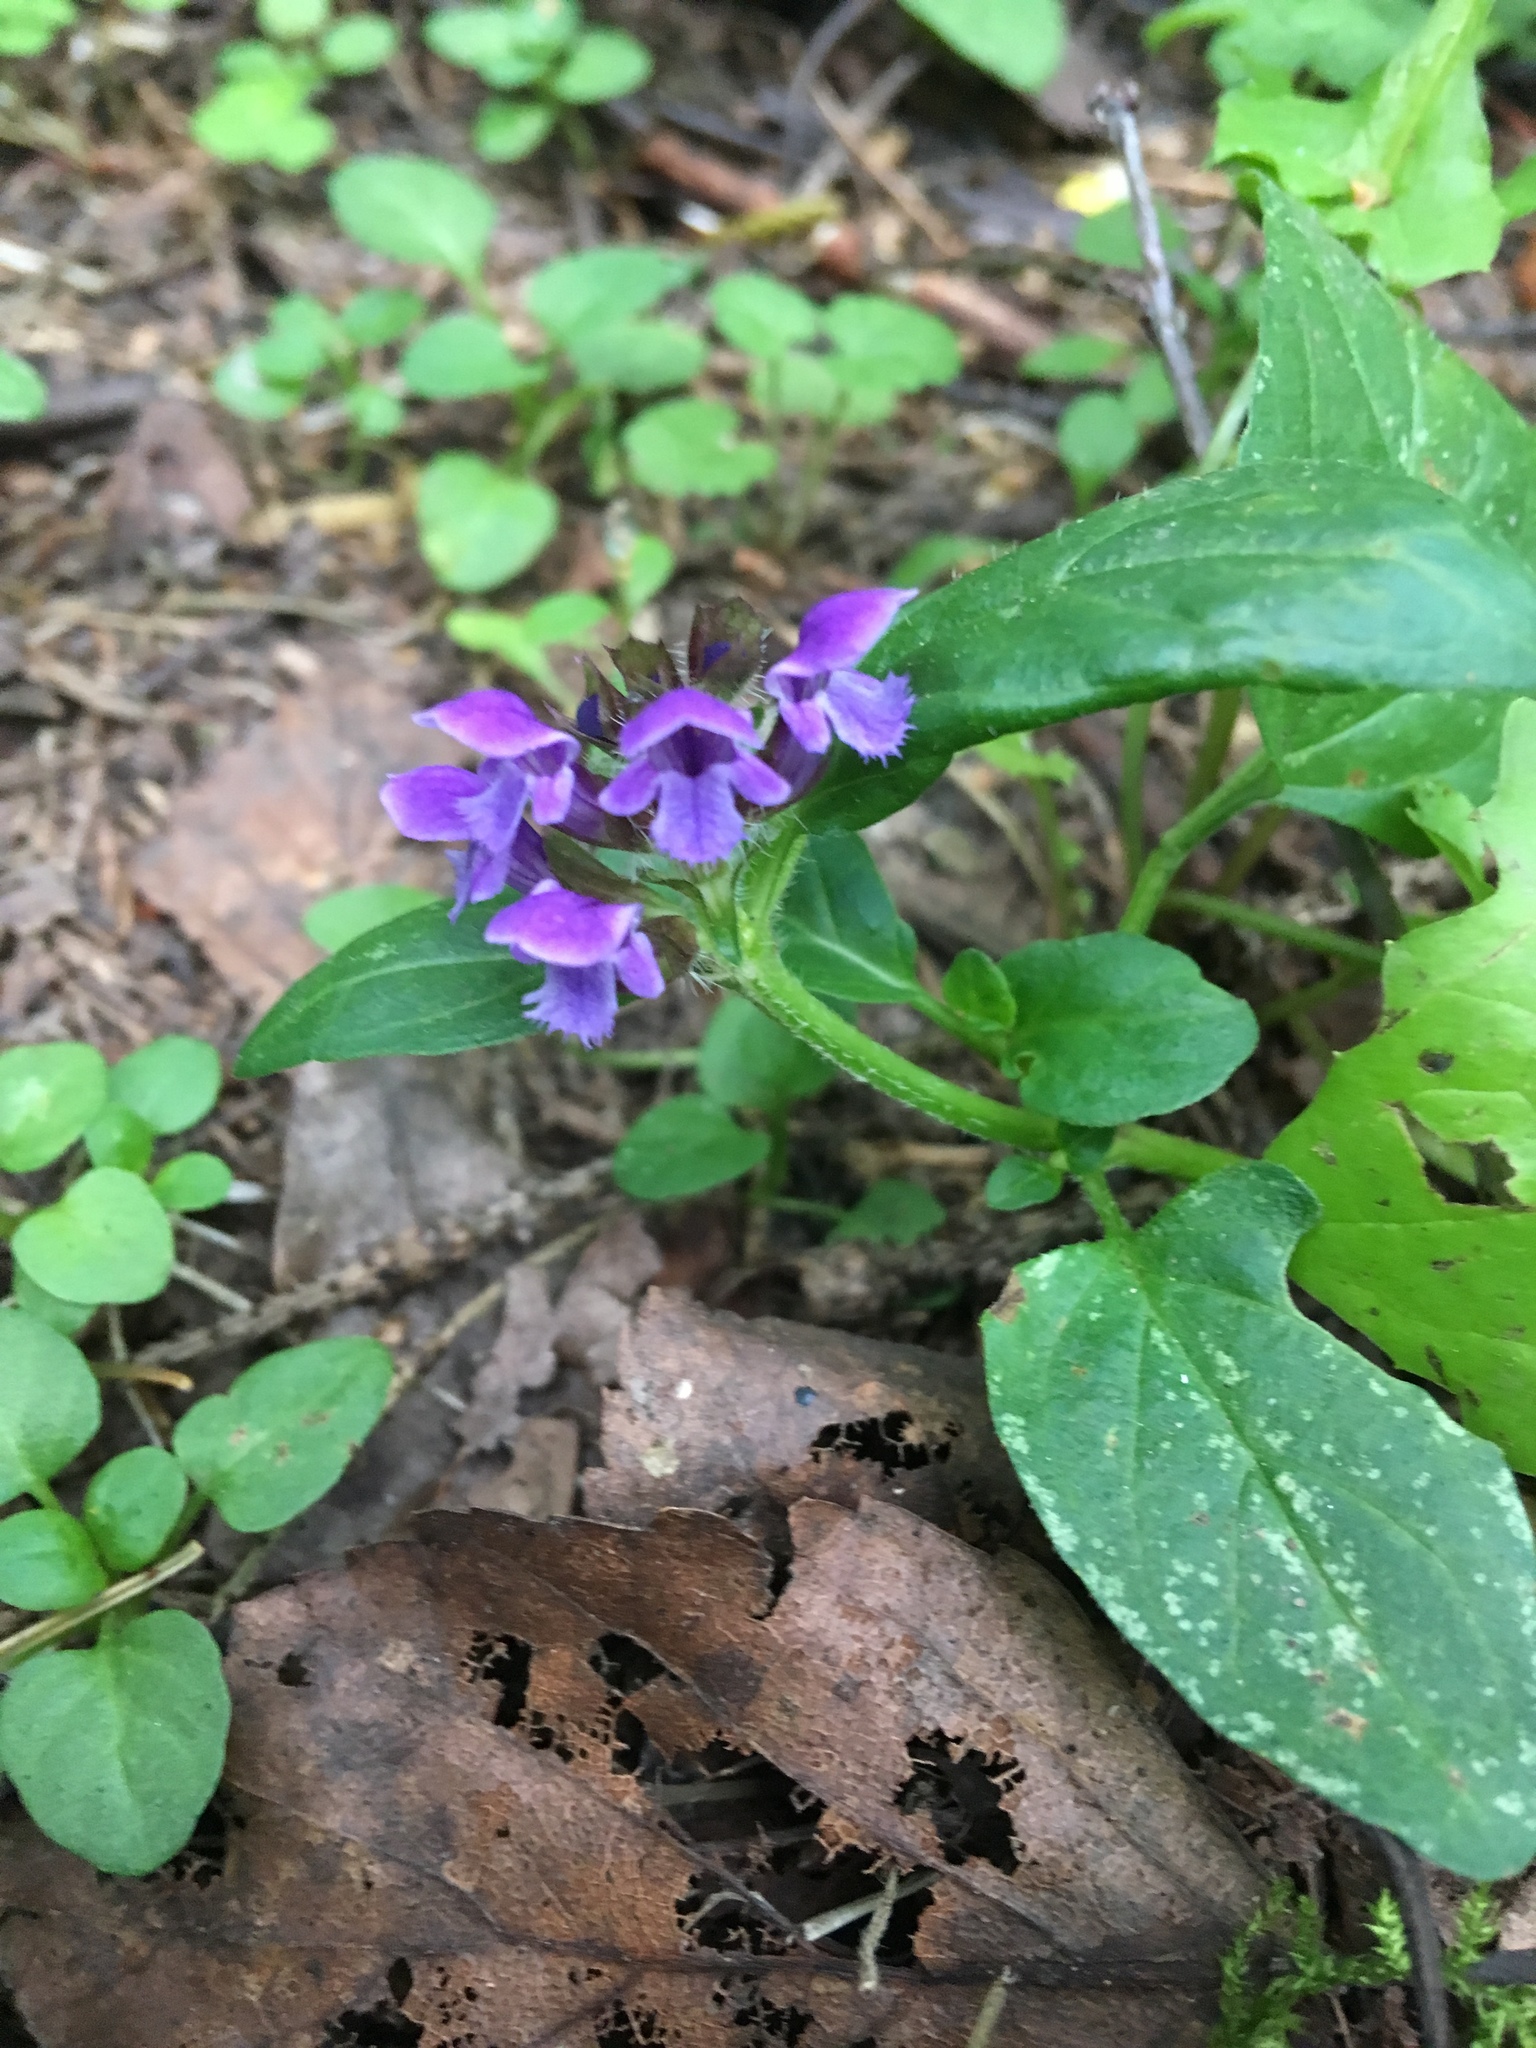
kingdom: Plantae
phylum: Tracheophyta
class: Magnoliopsida
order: Lamiales
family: Lamiaceae
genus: Prunella
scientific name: Prunella vulgaris
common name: Heal-all
